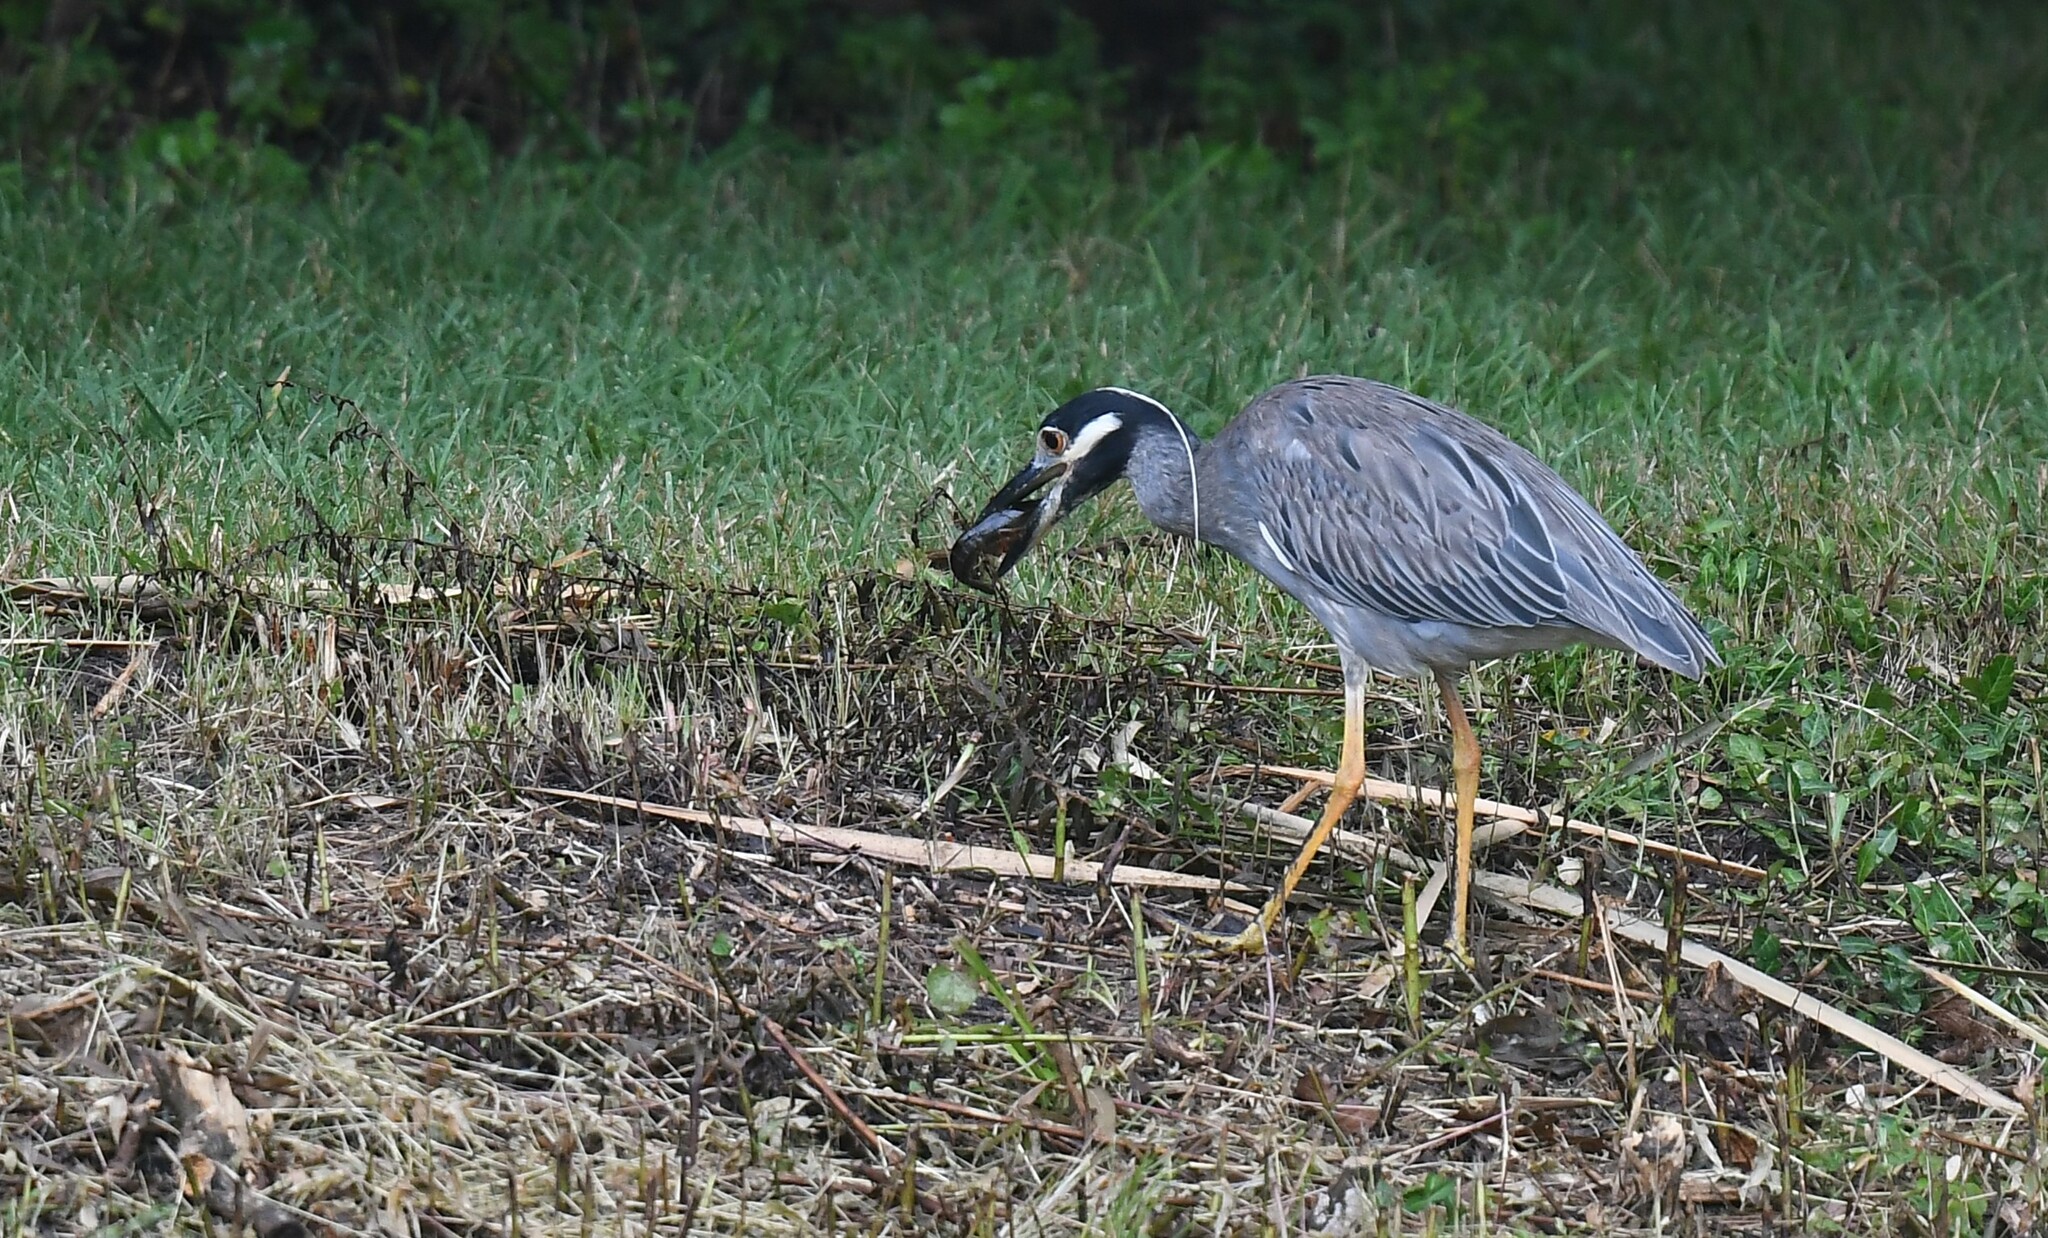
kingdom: Animalia
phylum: Chordata
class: Aves
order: Pelecaniformes
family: Ardeidae
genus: Nyctanassa
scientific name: Nyctanassa violacea
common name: Yellow-crowned night heron
